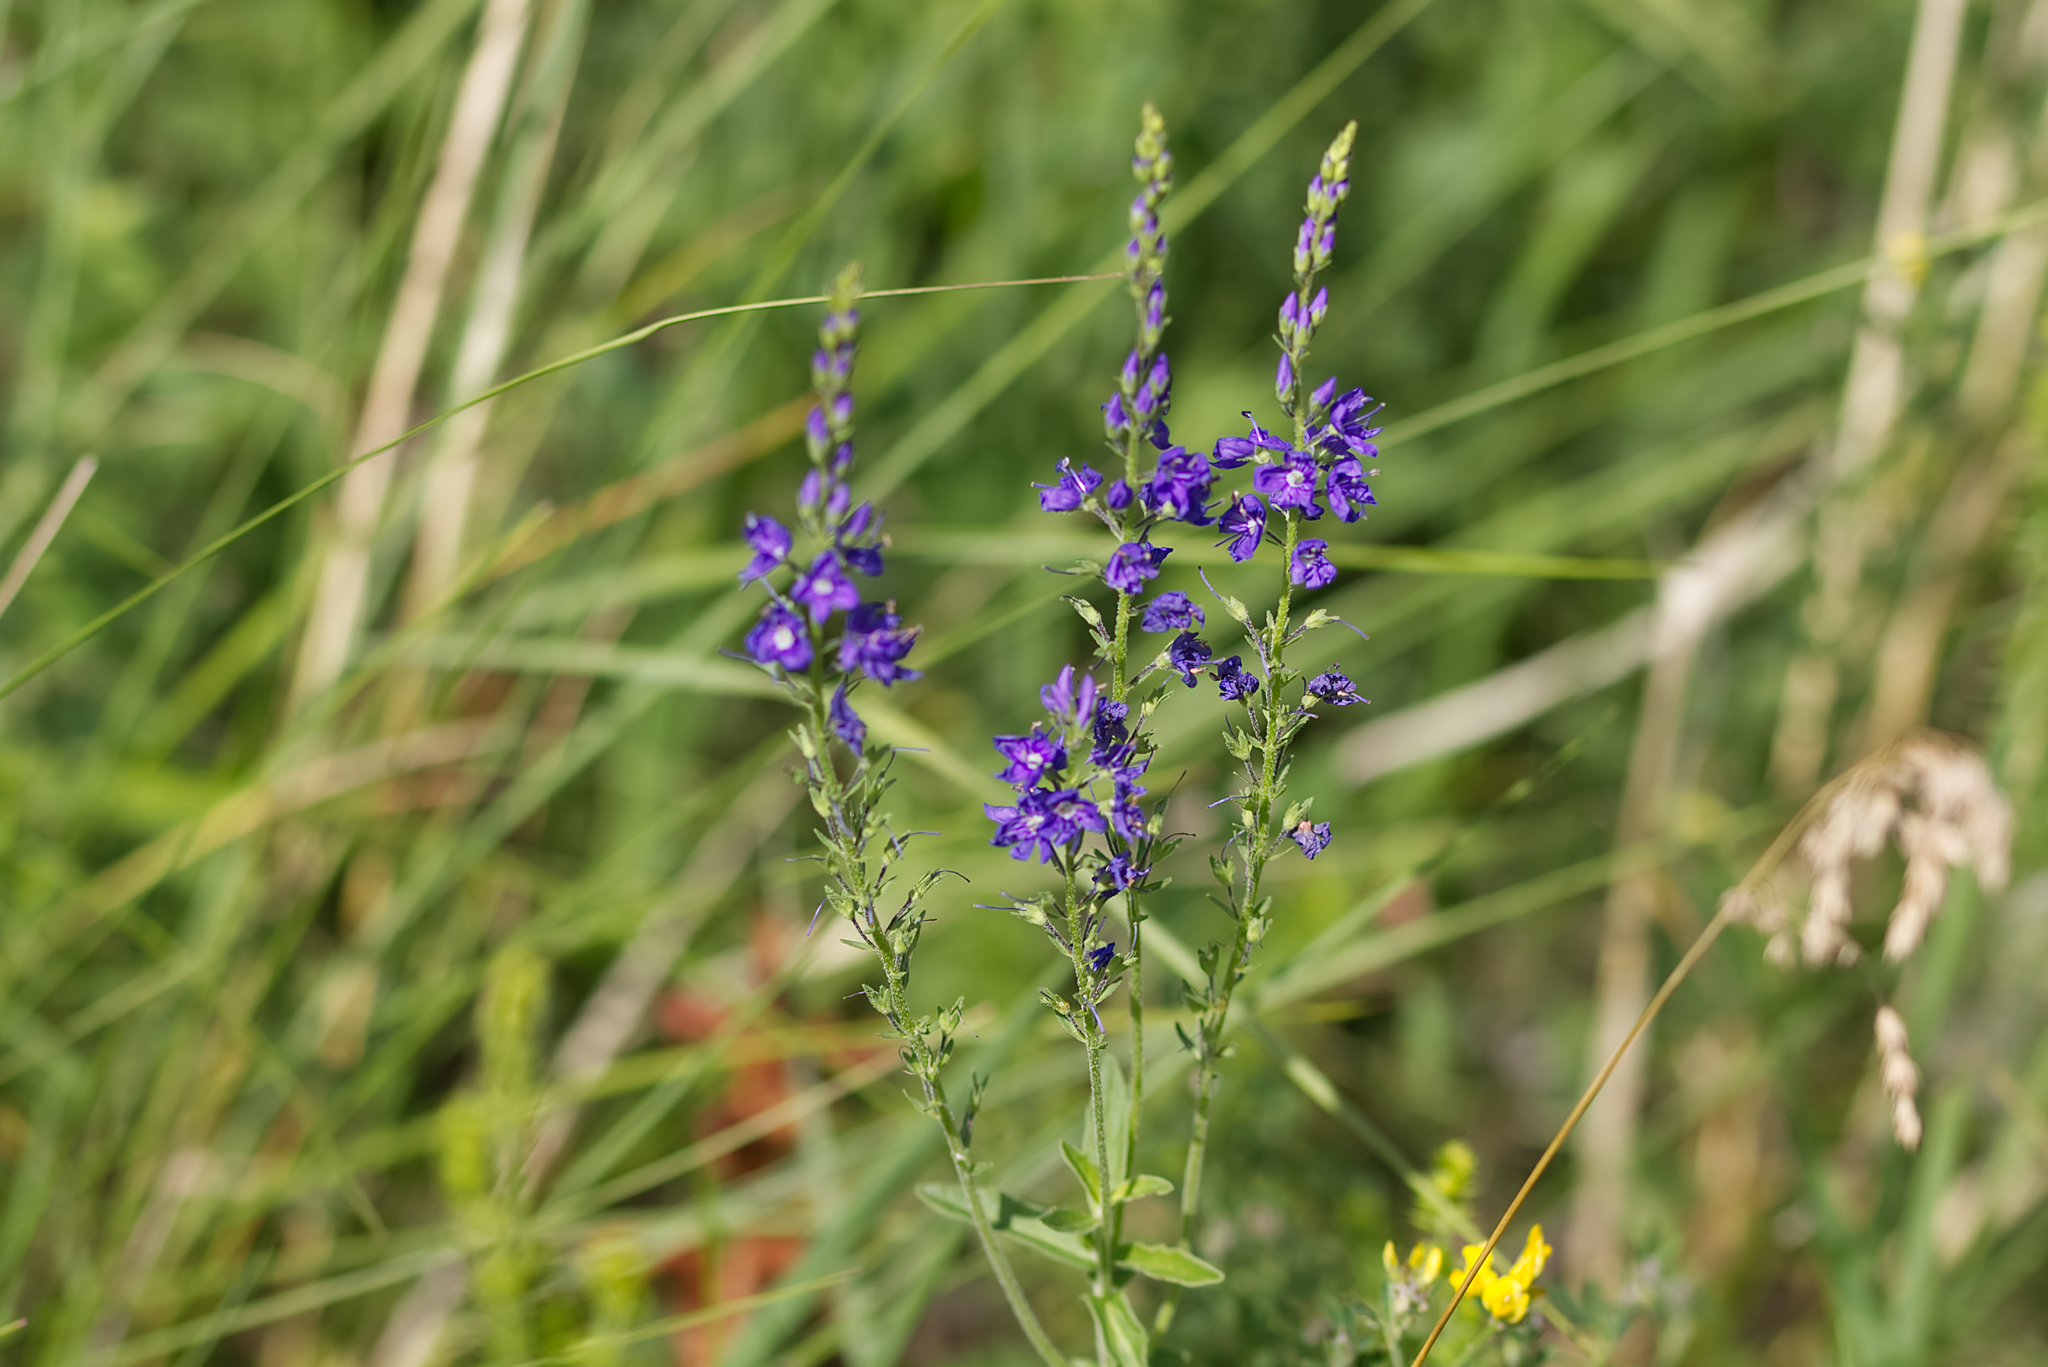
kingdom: Plantae
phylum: Tracheophyta
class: Magnoliopsida
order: Lamiales
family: Plantaginaceae
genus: Veronica
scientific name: Veronica teucrium
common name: Large speedwell
